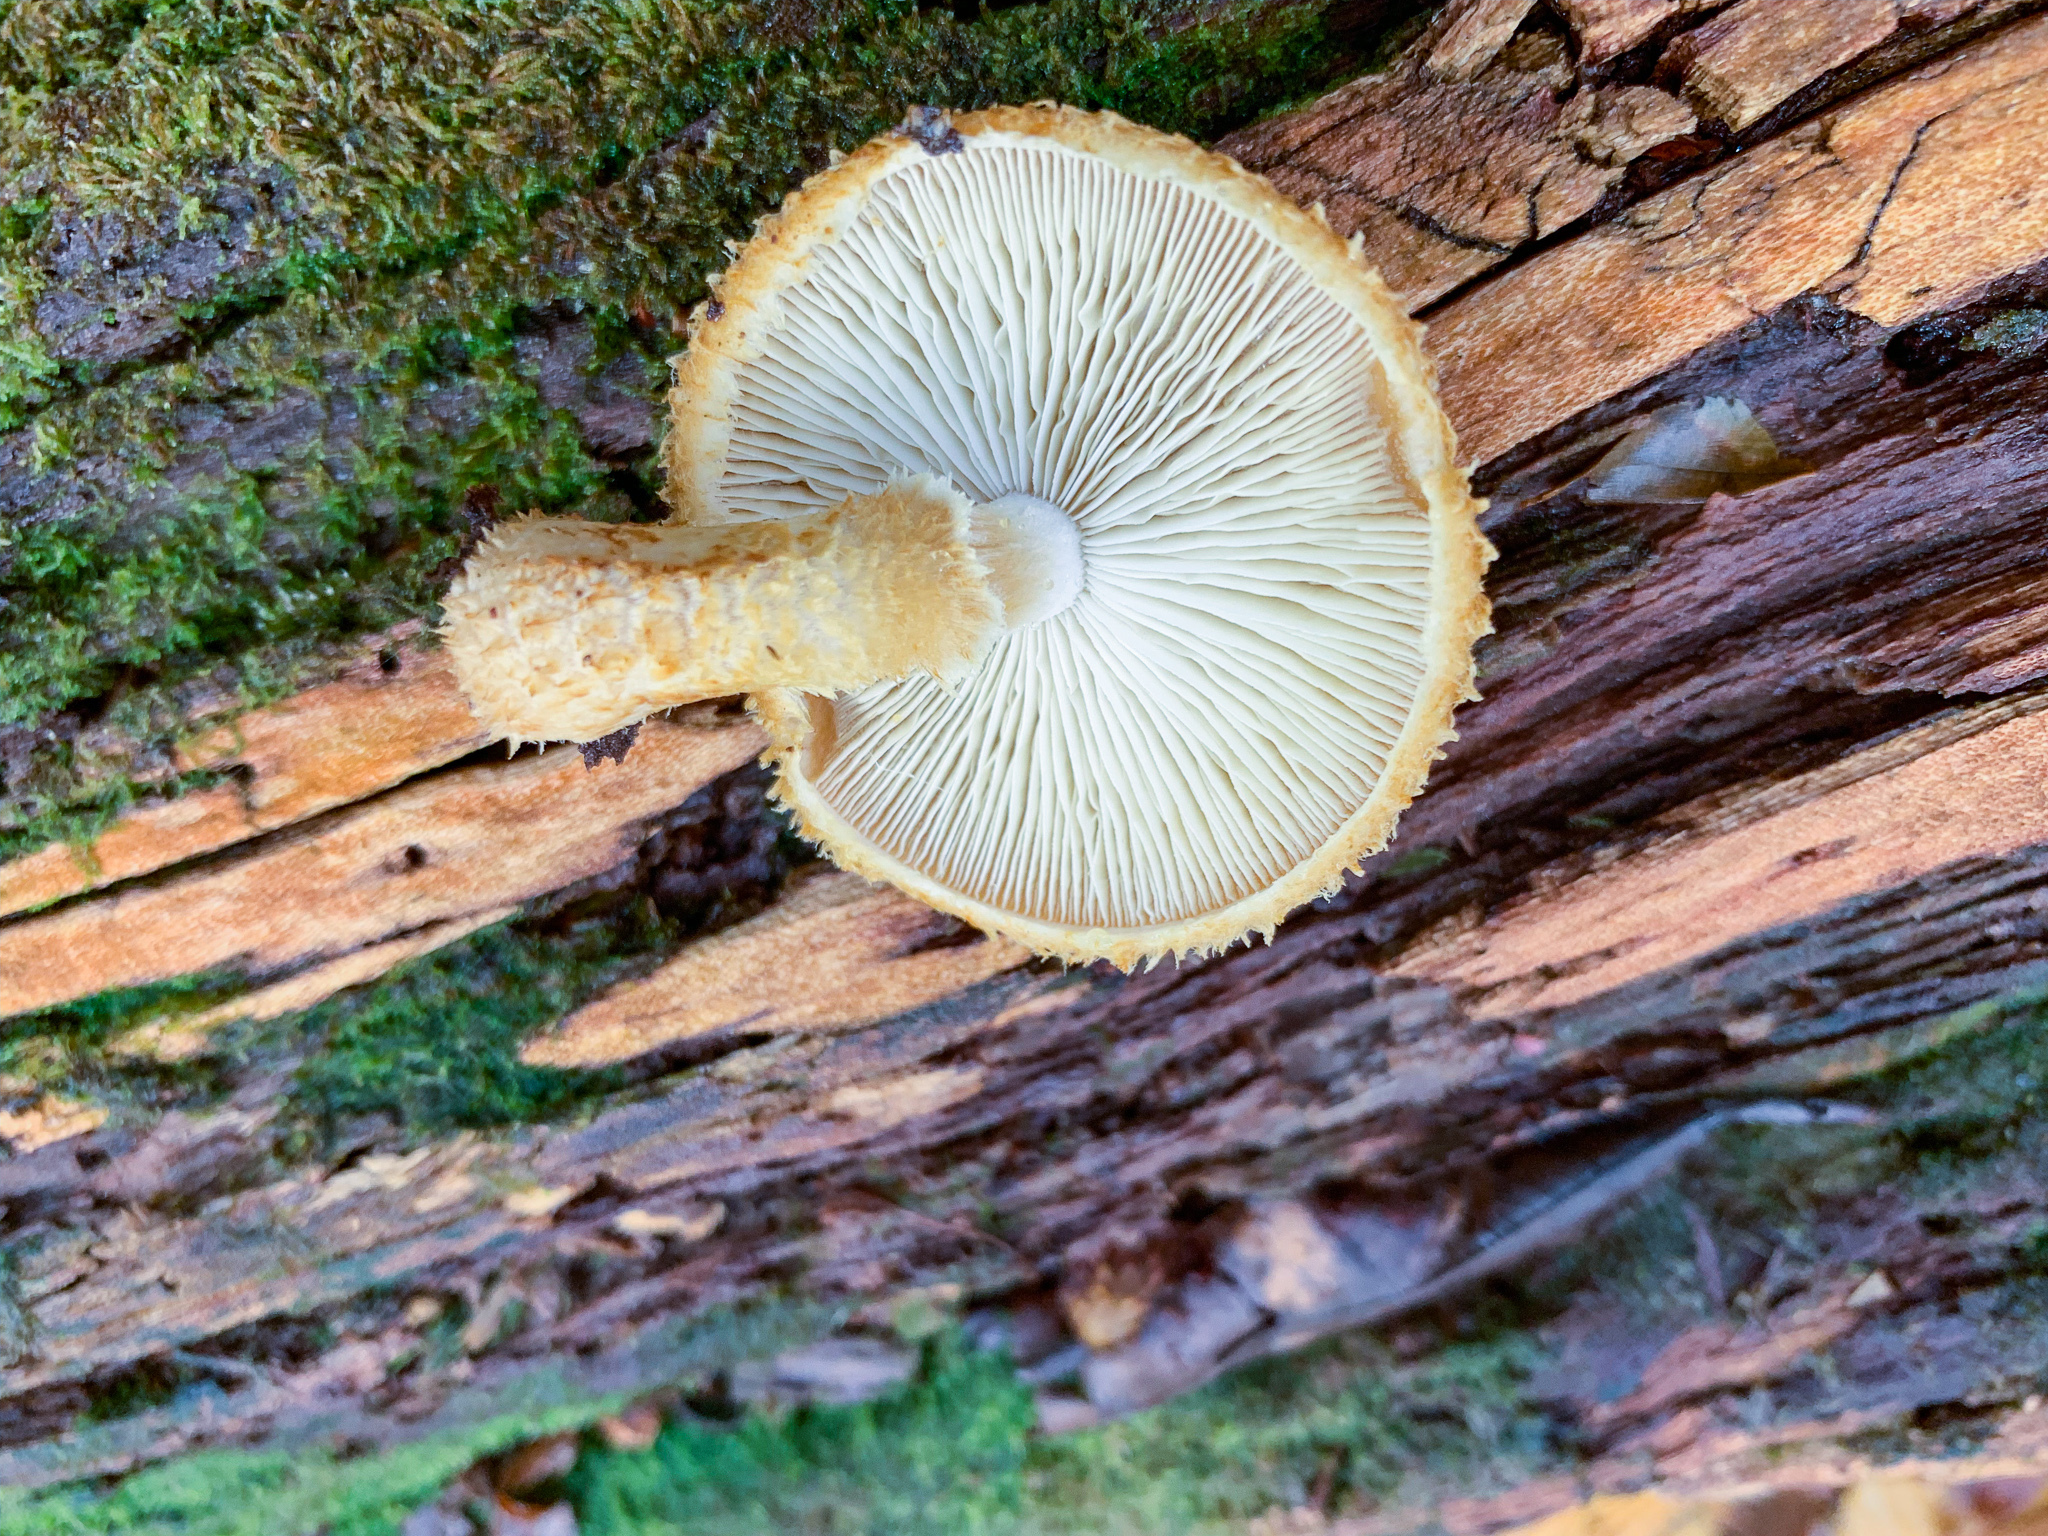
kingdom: Fungi
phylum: Basidiomycota
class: Agaricomycetes
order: Agaricales
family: Agaricaceae
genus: Leucopholiota
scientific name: Leucopholiota decorosa
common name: Decorated pholiota
